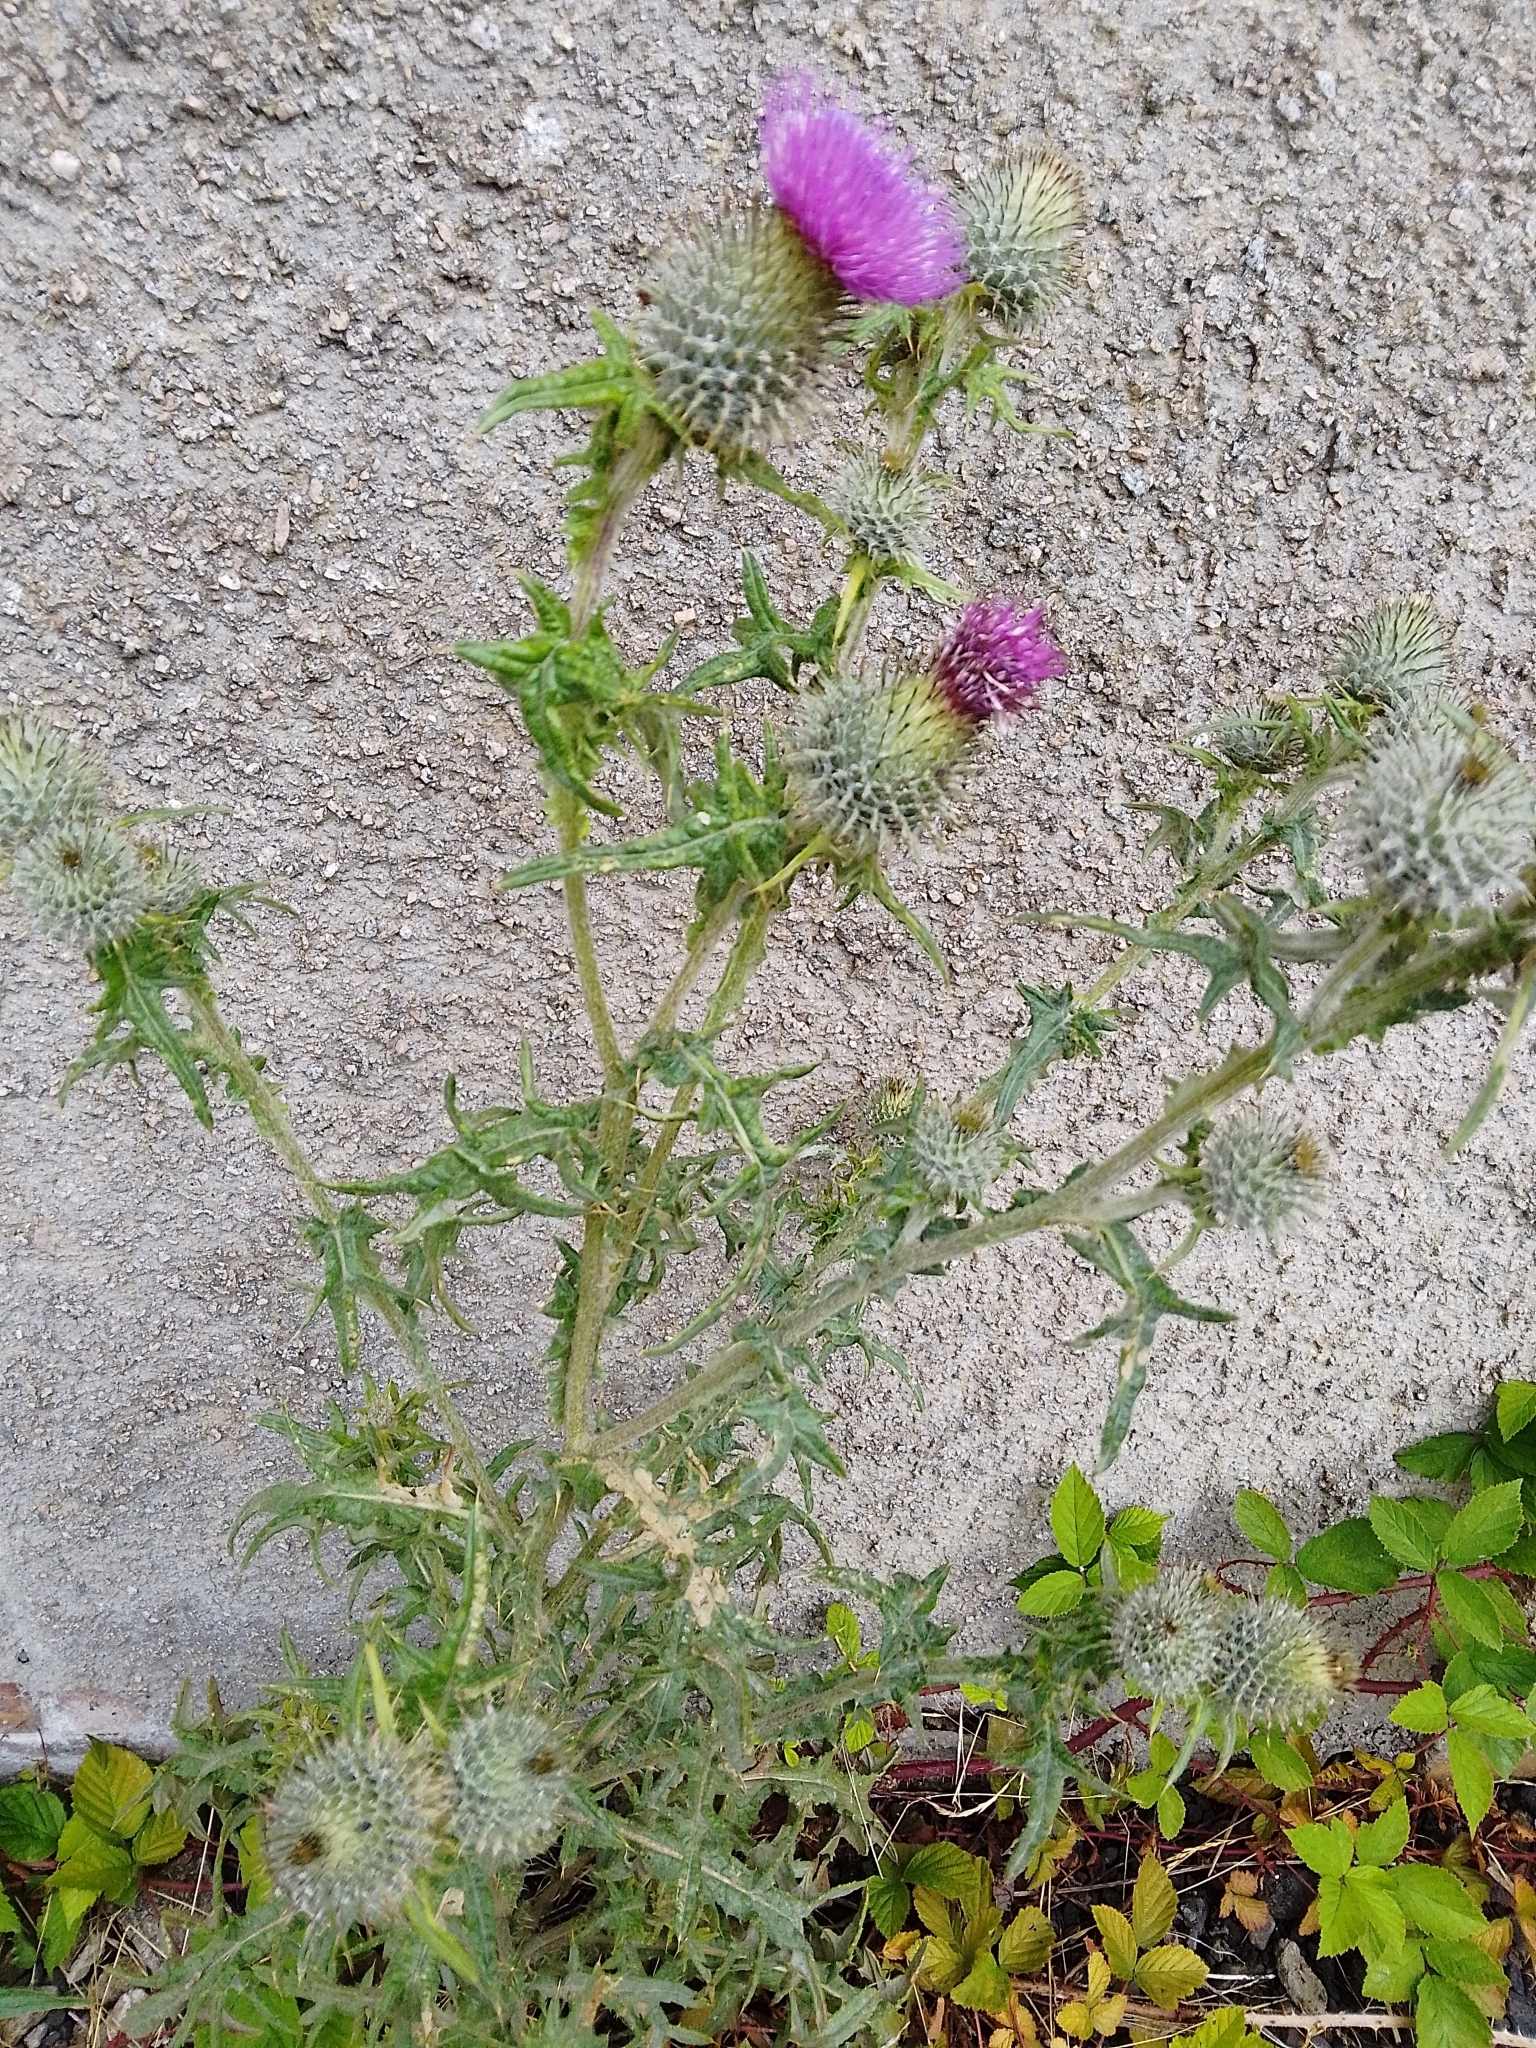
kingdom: Plantae
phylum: Tracheophyta
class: Magnoliopsida
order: Asterales
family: Asteraceae
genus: Cirsium
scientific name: Cirsium vulgare
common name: Bull thistle
